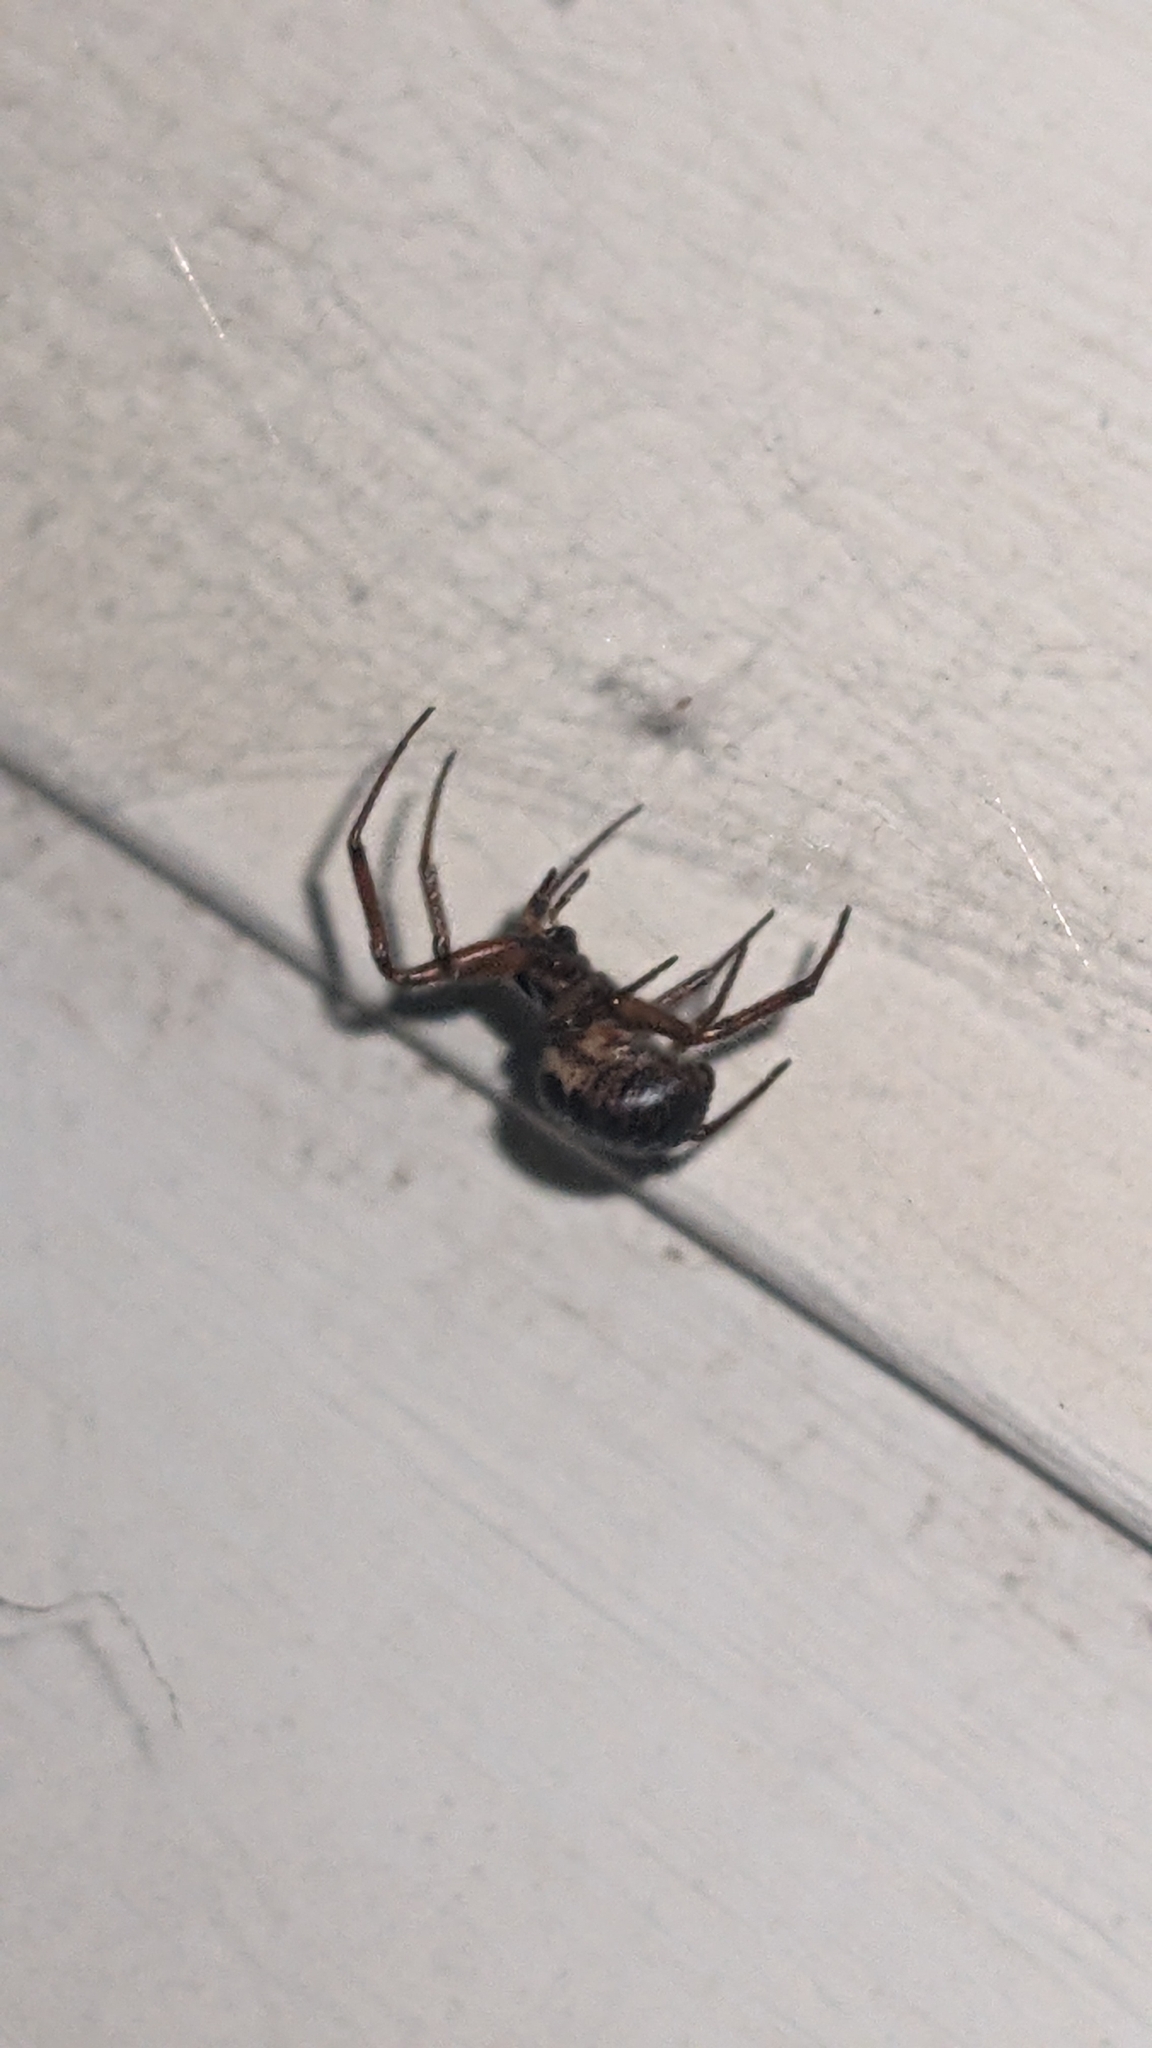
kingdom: Animalia
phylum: Arthropoda
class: Arachnida
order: Araneae
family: Theridiidae
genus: Steatoda
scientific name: Steatoda nobilis
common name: Cobweb weaver
